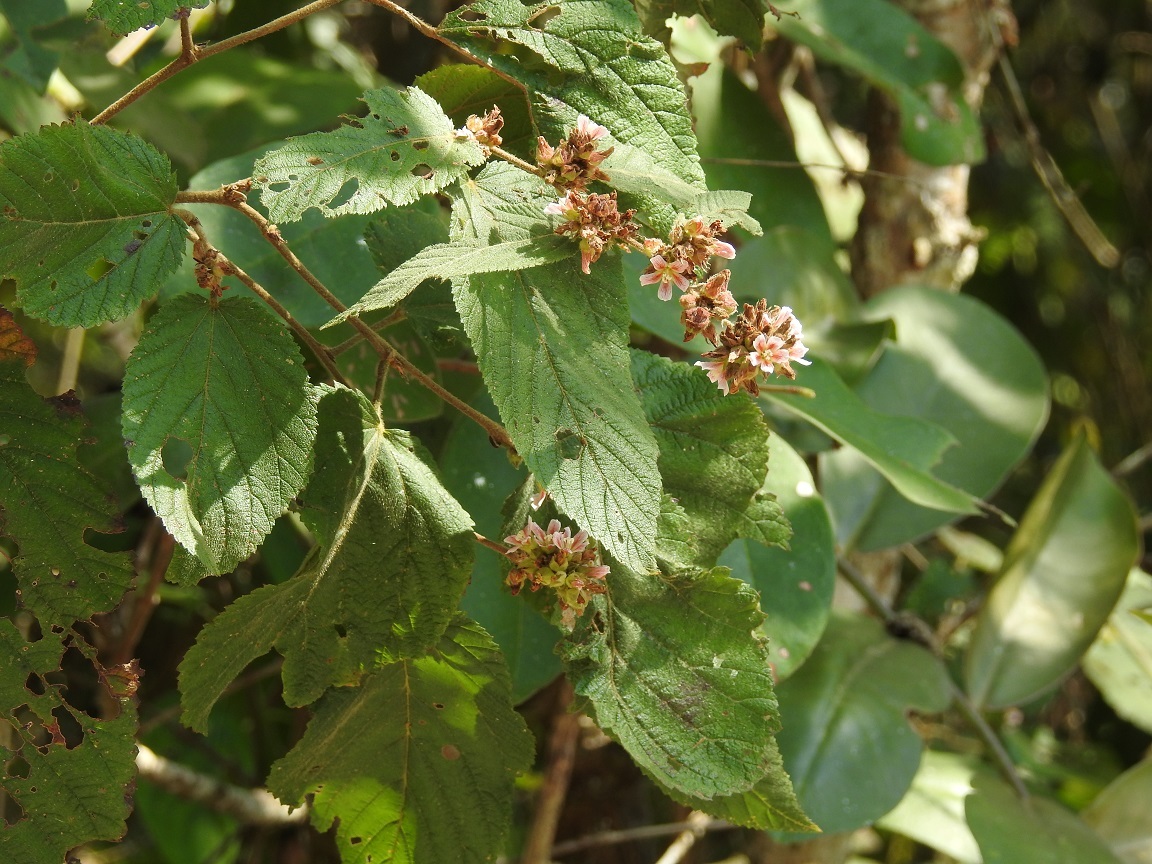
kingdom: Plantae
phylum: Tracheophyta
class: Magnoliopsida
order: Malvales
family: Malvaceae
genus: Melochia
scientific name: Melochia nodiflora
